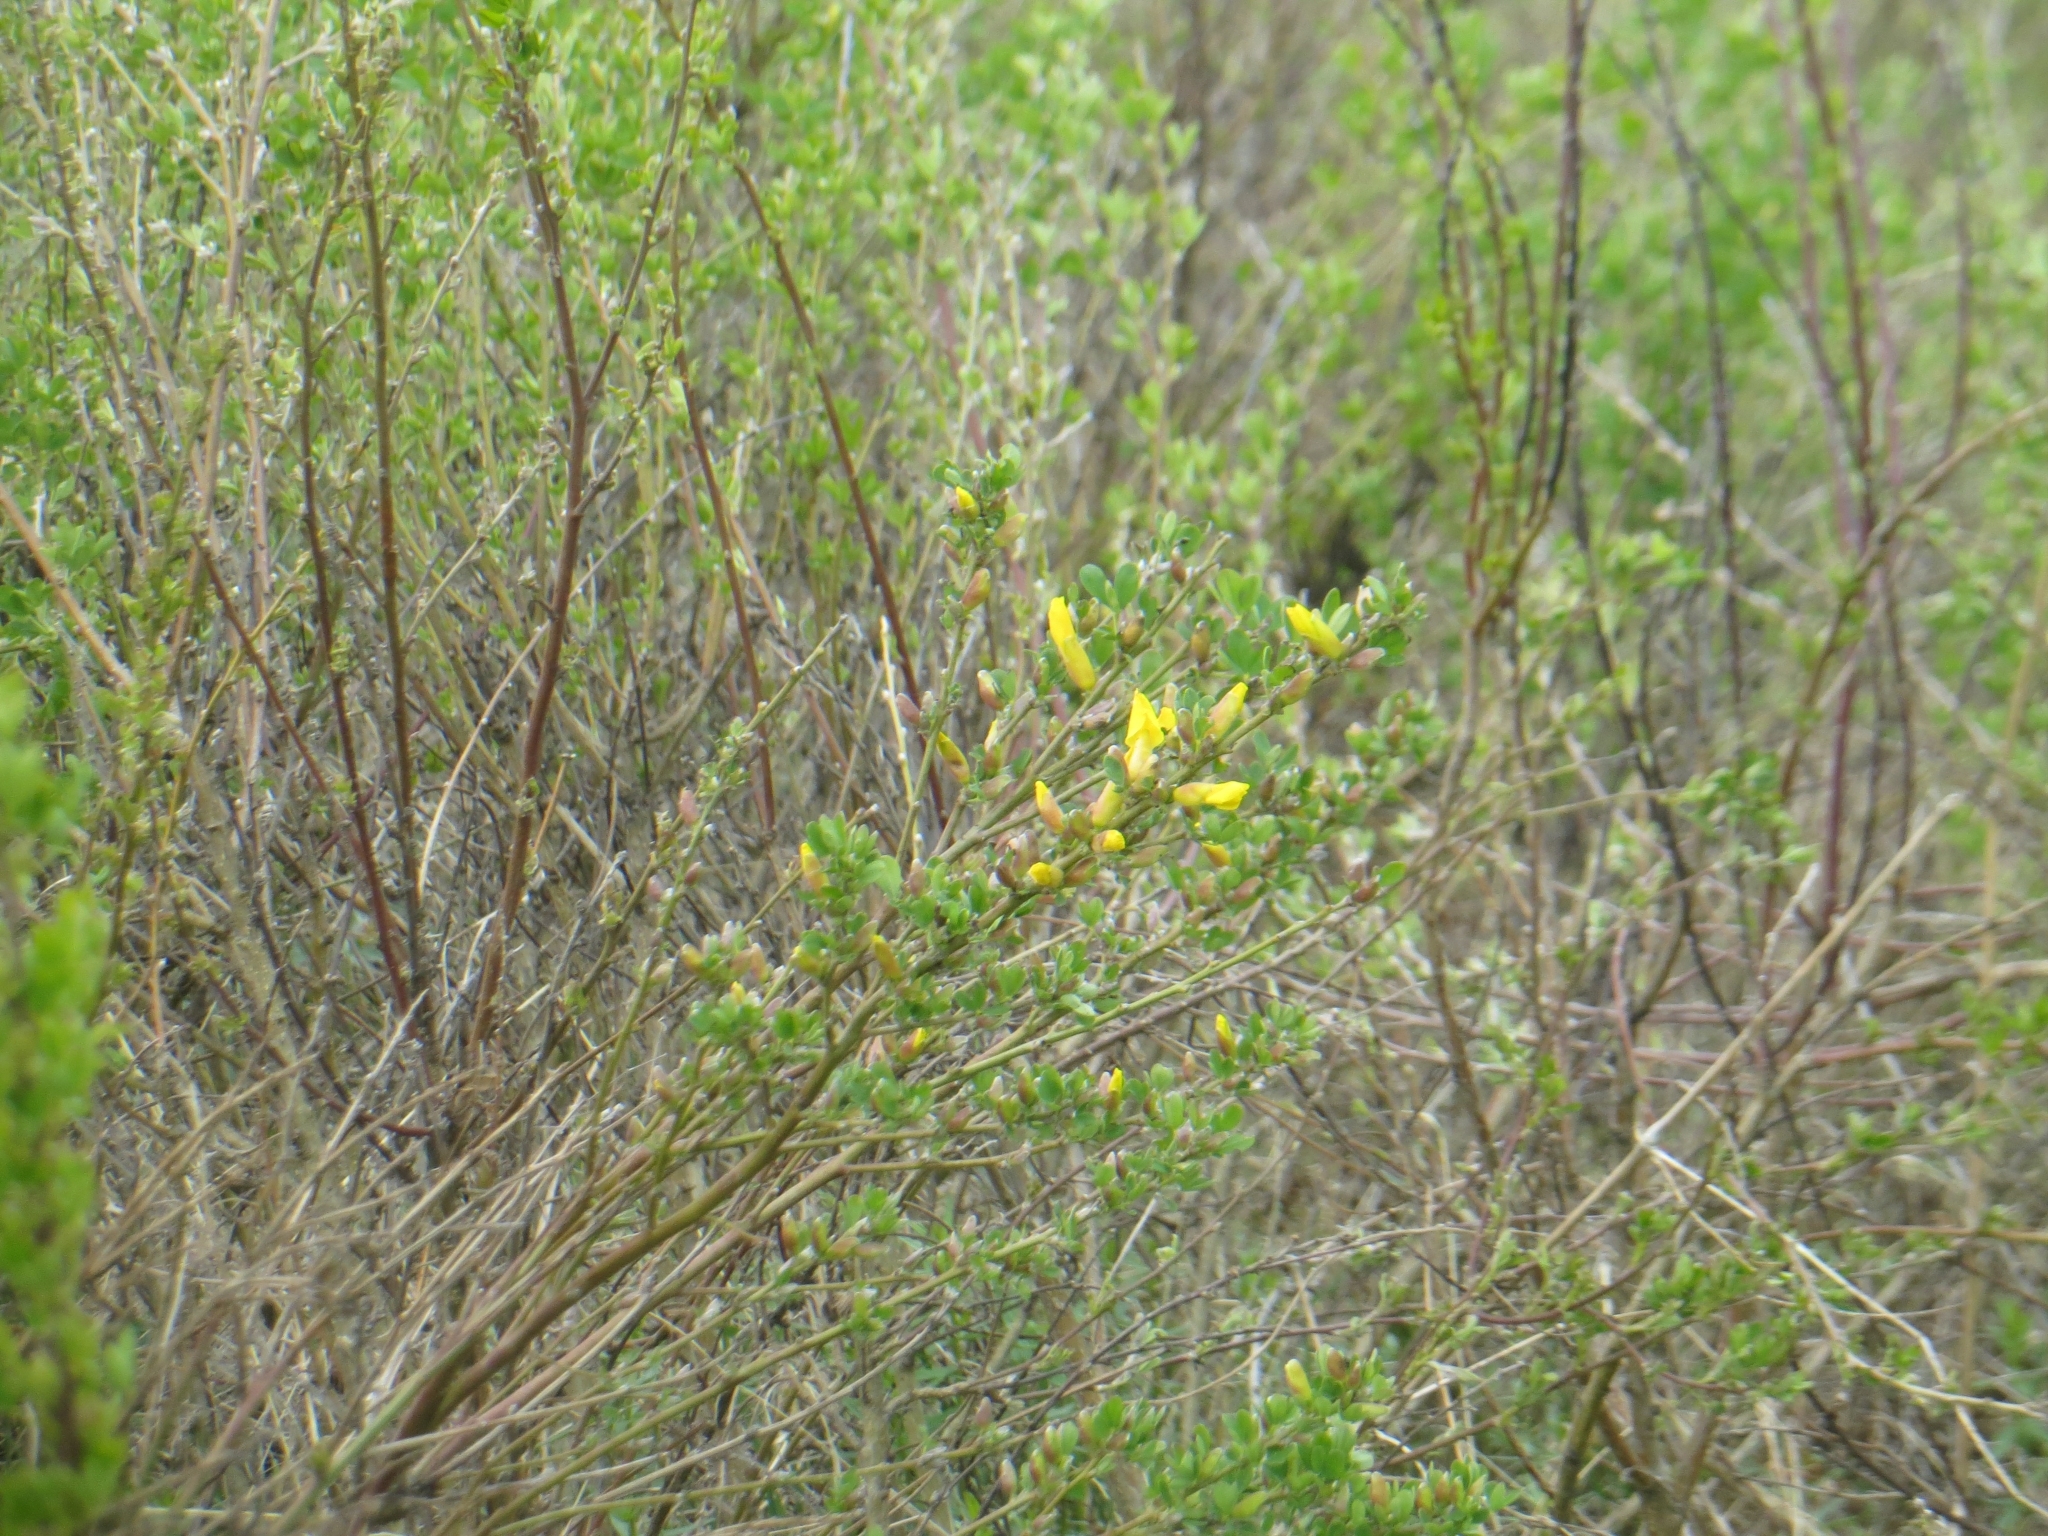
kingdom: Plantae
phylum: Tracheophyta
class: Magnoliopsida
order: Fabales
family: Fabaceae
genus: Chamaecytisus
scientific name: Chamaecytisus ruthenicus
